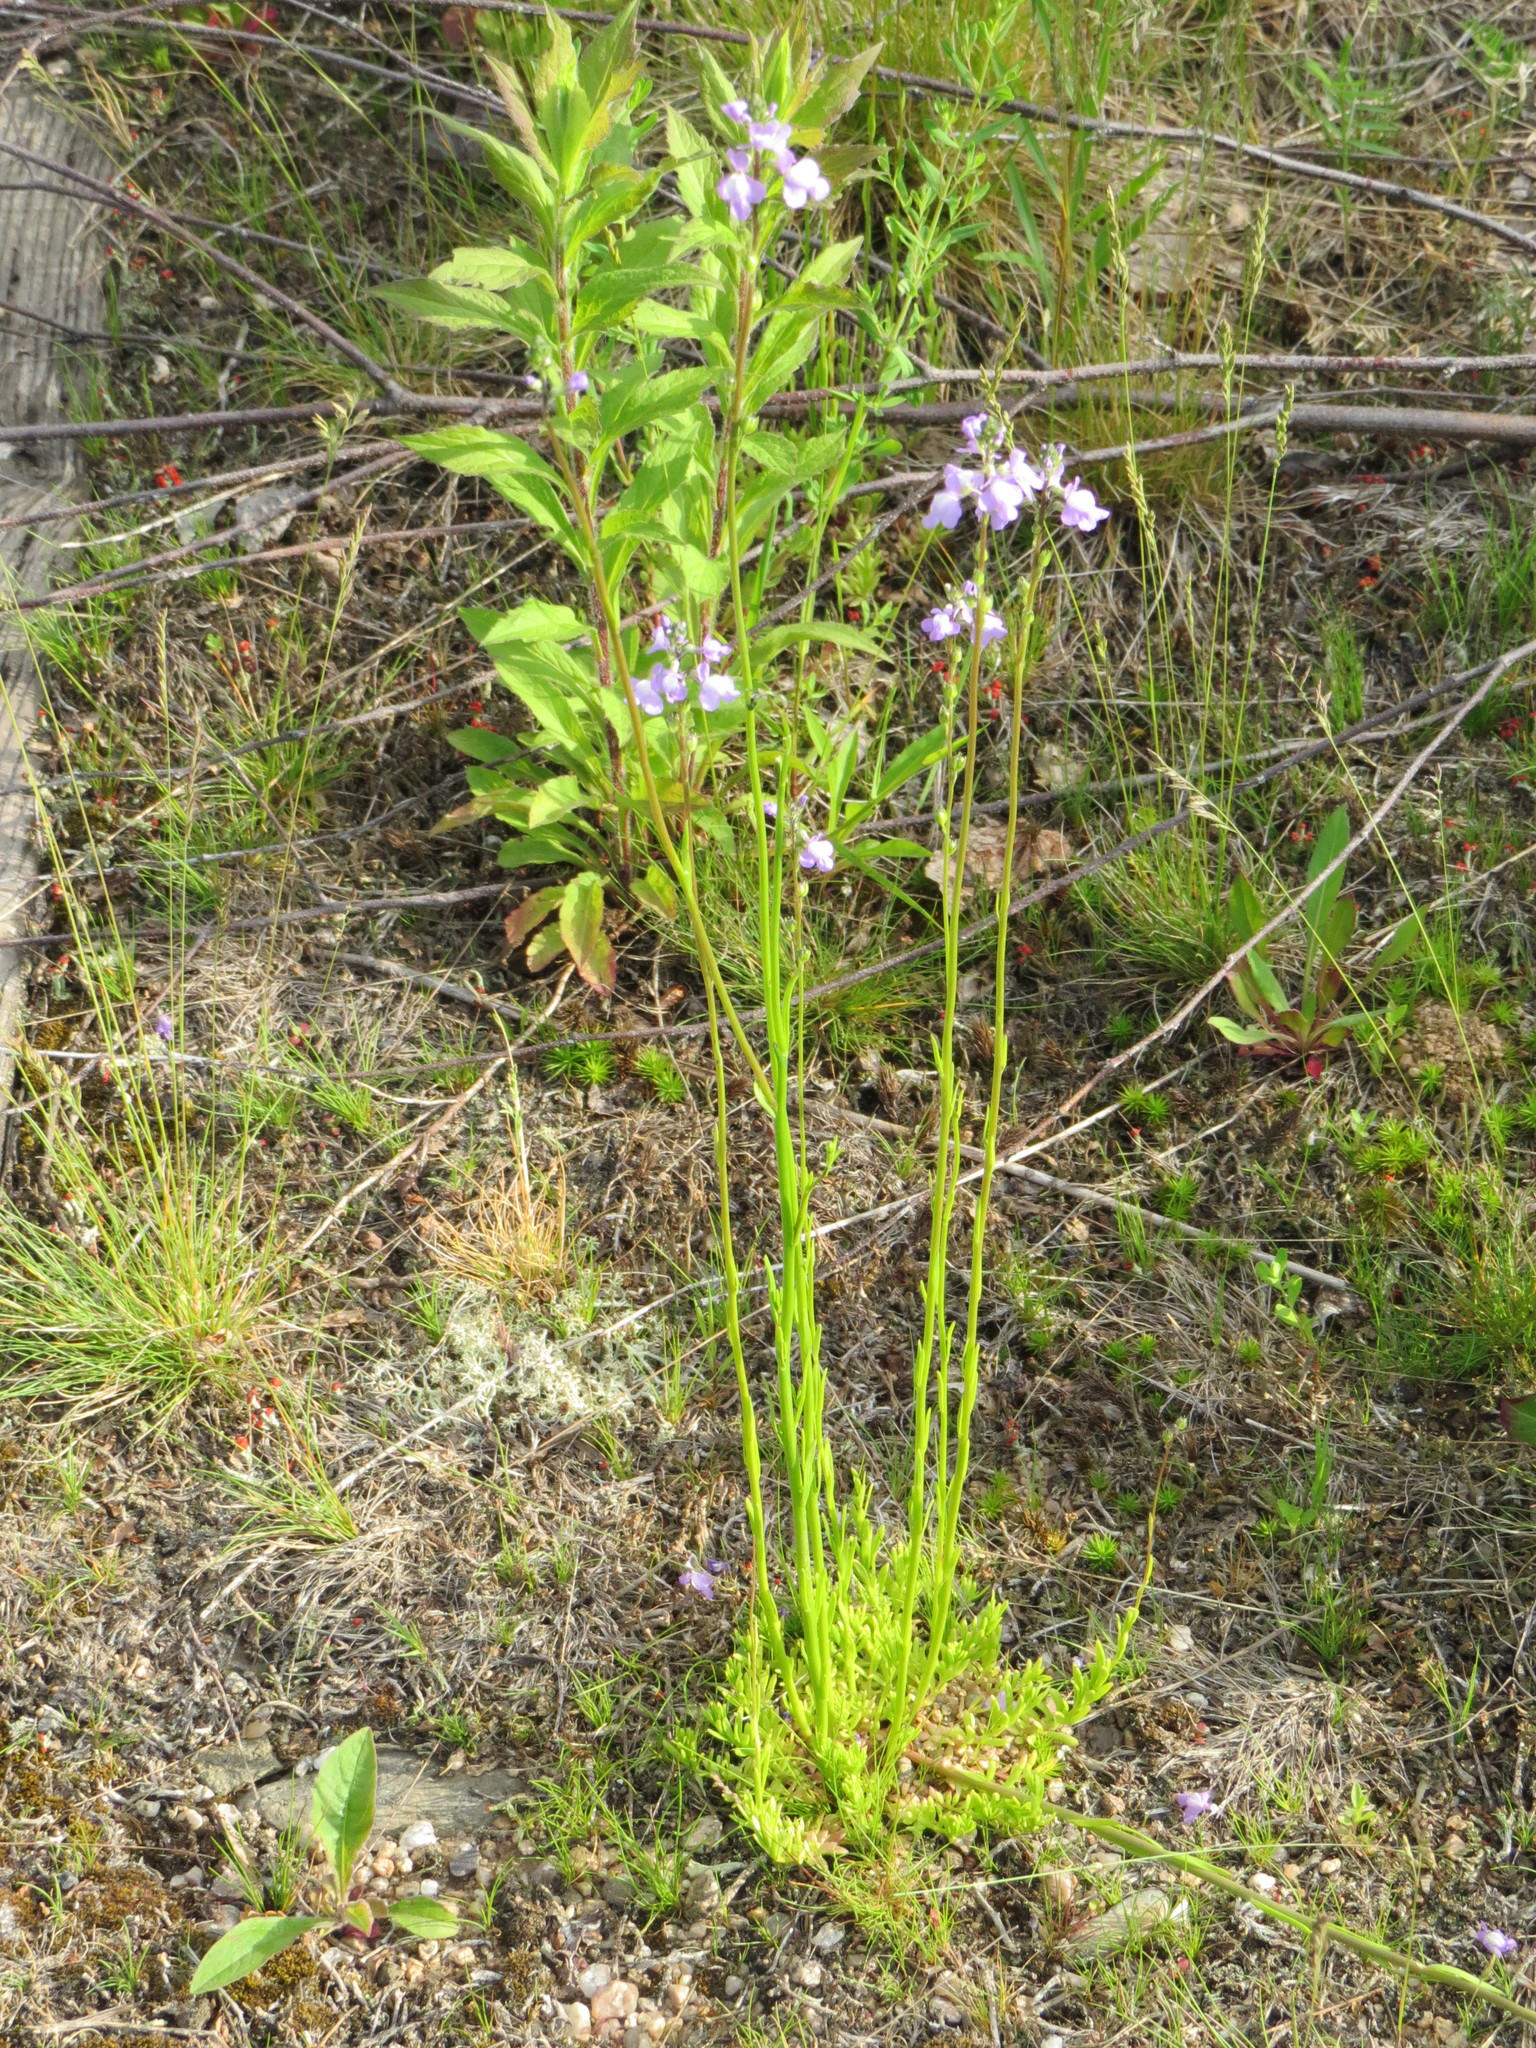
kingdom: Plantae
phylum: Tracheophyta
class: Magnoliopsida
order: Lamiales
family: Plantaginaceae
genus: Nuttallanthus
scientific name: Nuttallanthus canadensis
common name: Blue toadflax
